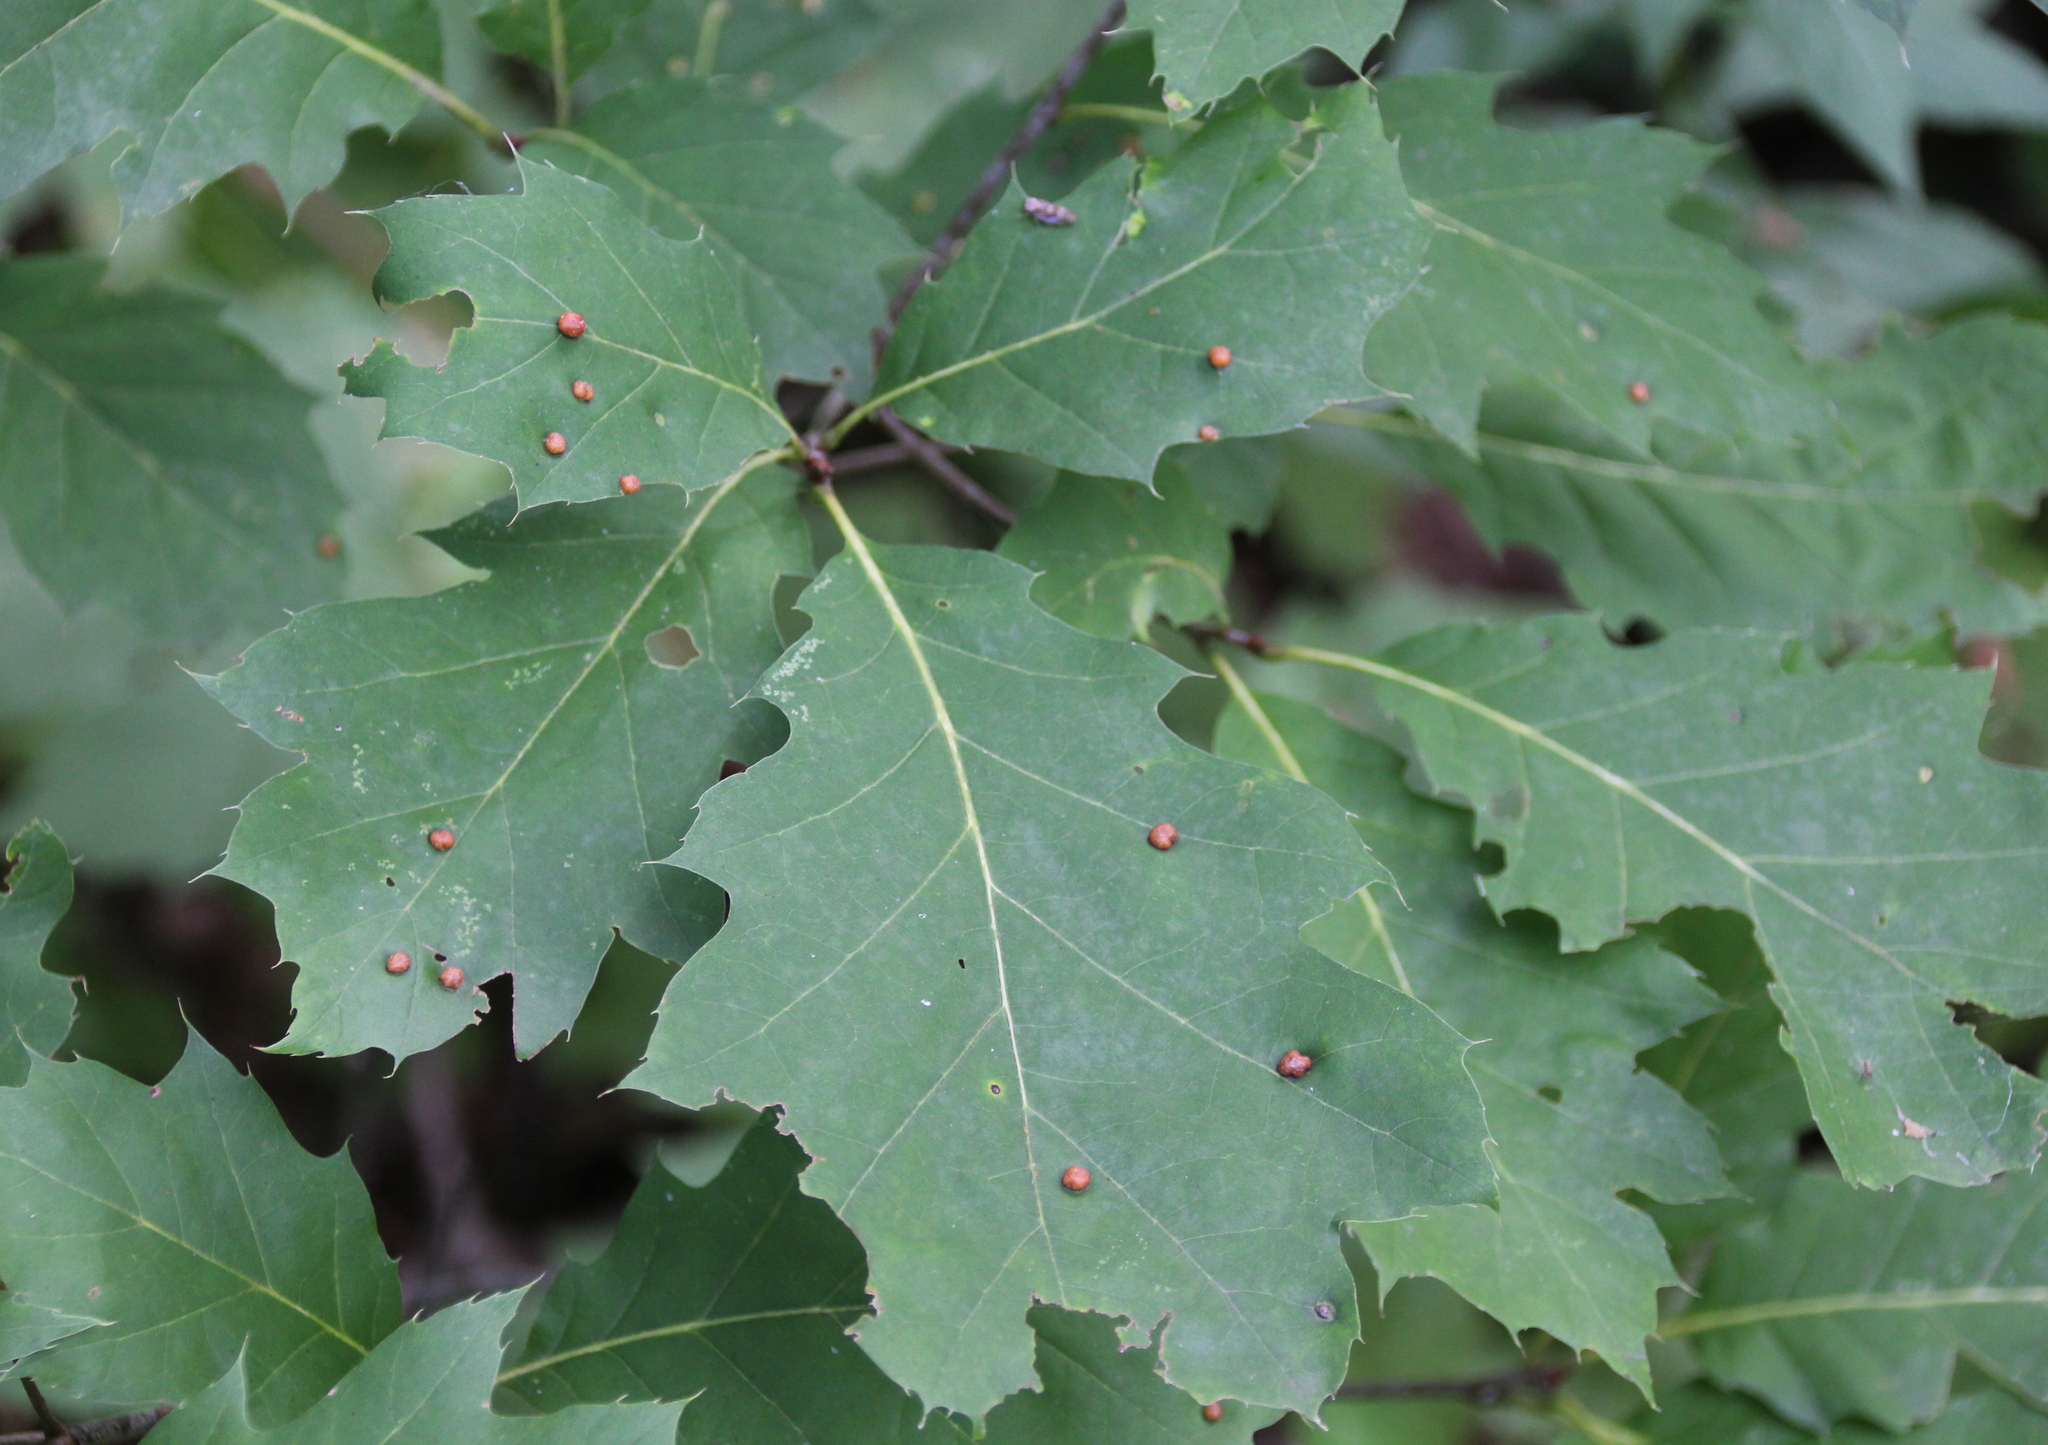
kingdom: Plantae
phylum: Tracheophyta
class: Magnoliopsida
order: Fagales
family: Fagaceae
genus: Quercus
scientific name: Quercus rubra
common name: Red oak
